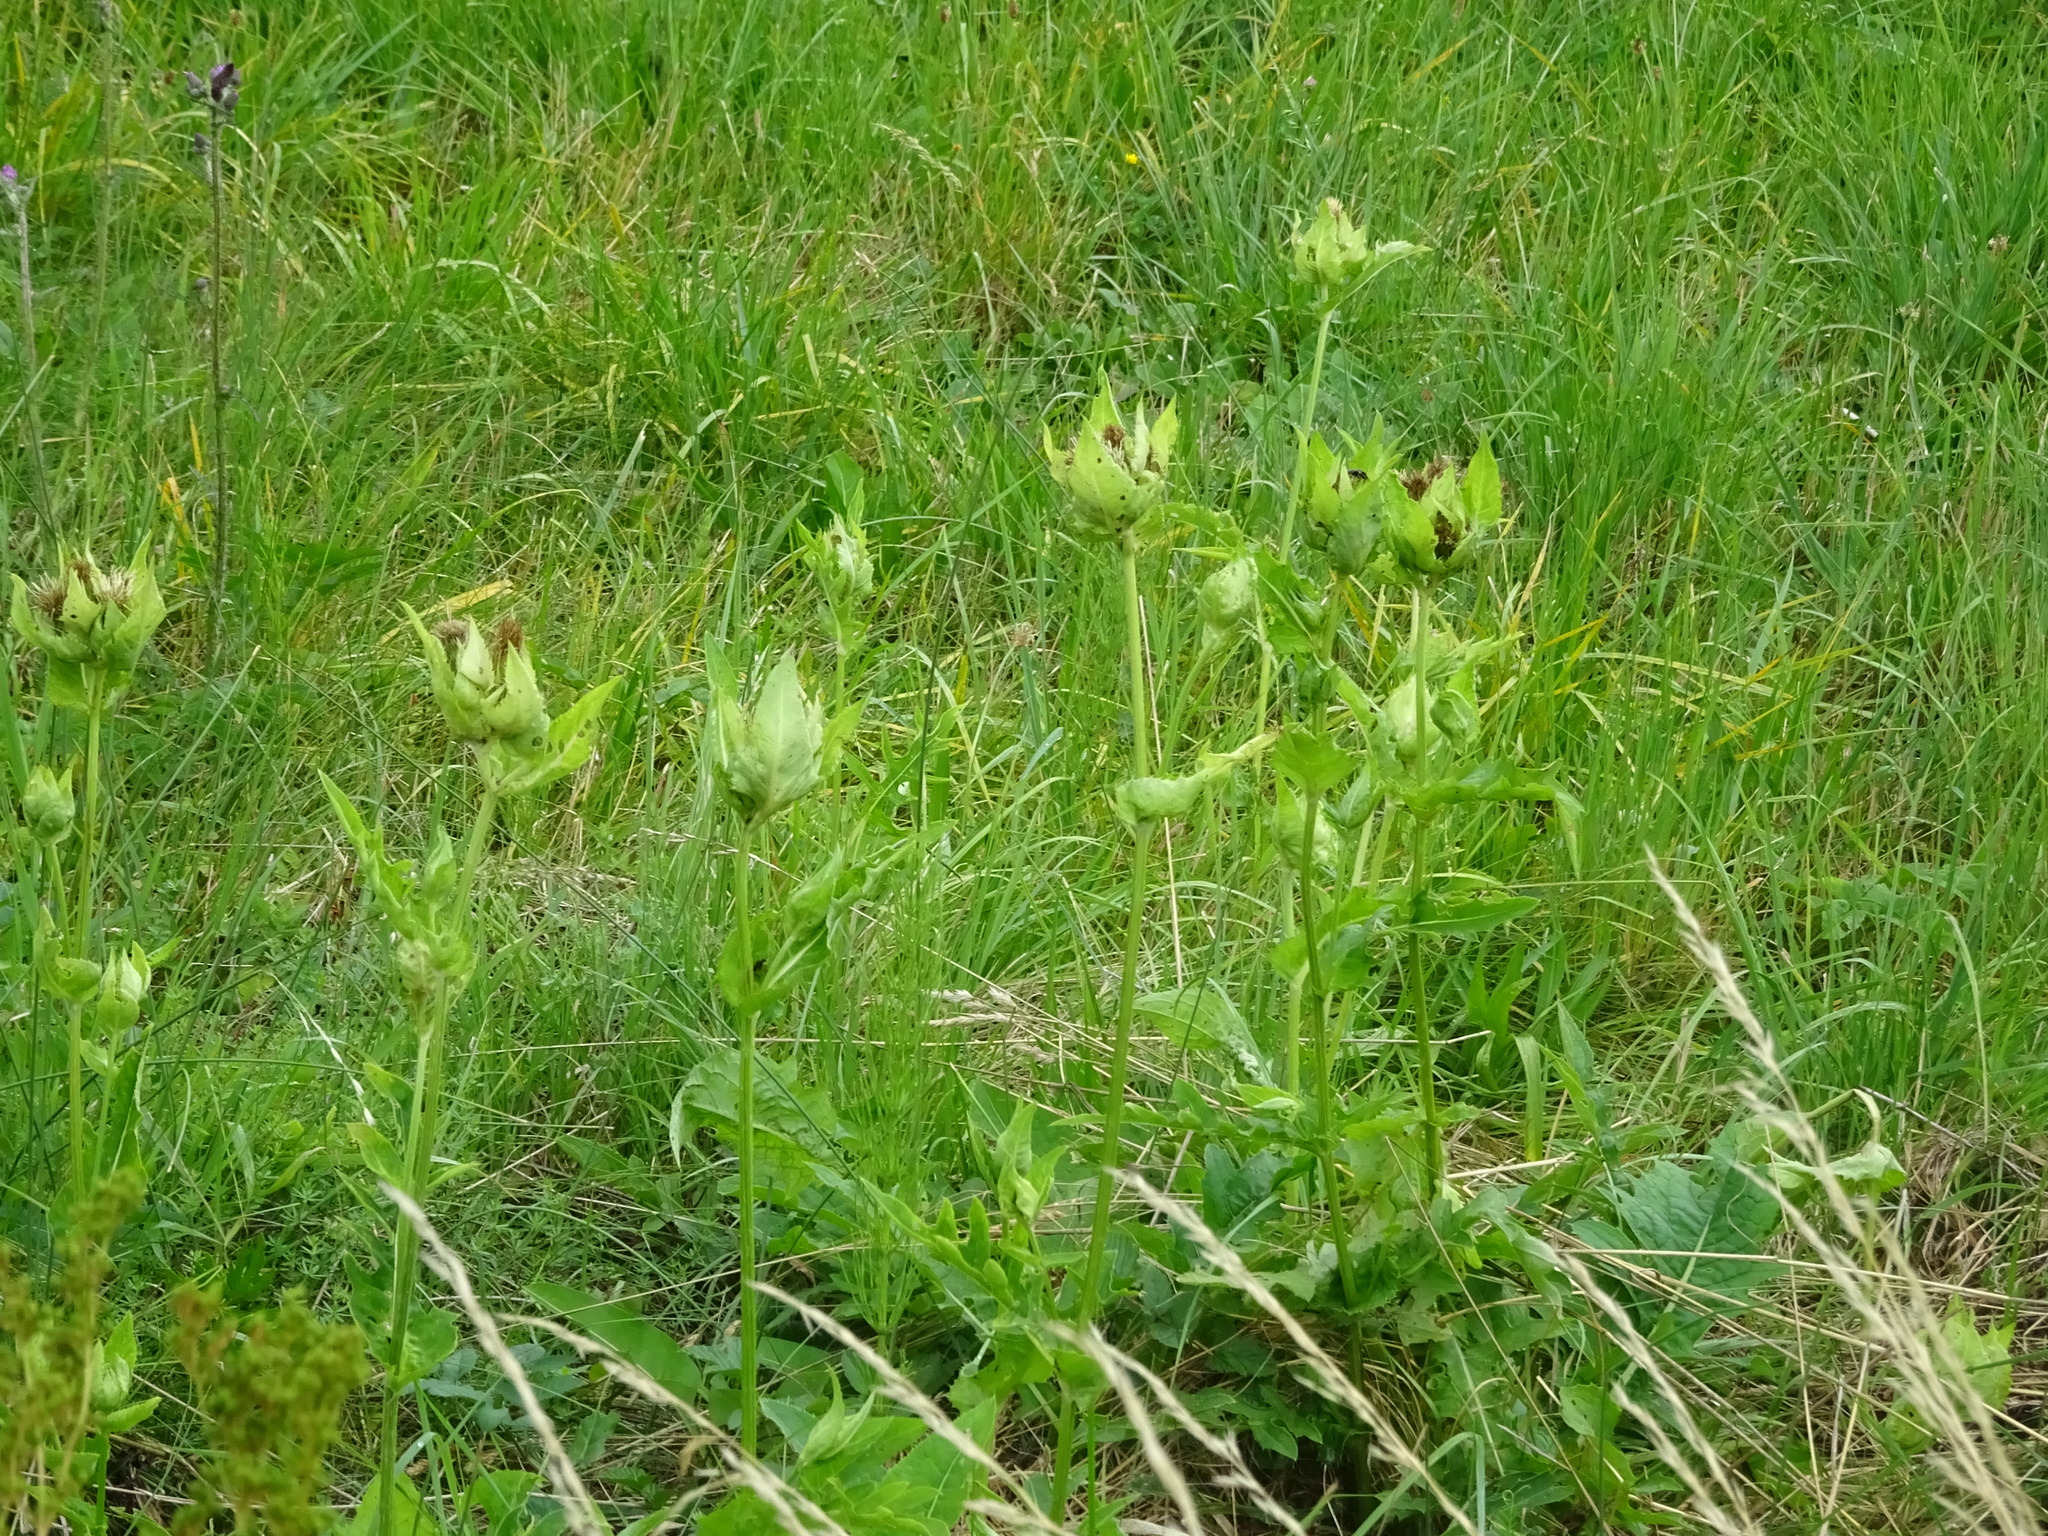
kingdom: Plantae
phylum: Tracheophyta
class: Magnoliopsida
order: Asterales
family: Asteraceae
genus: Cirsium
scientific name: Cirsium oleraceum
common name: Cabbage thistle
